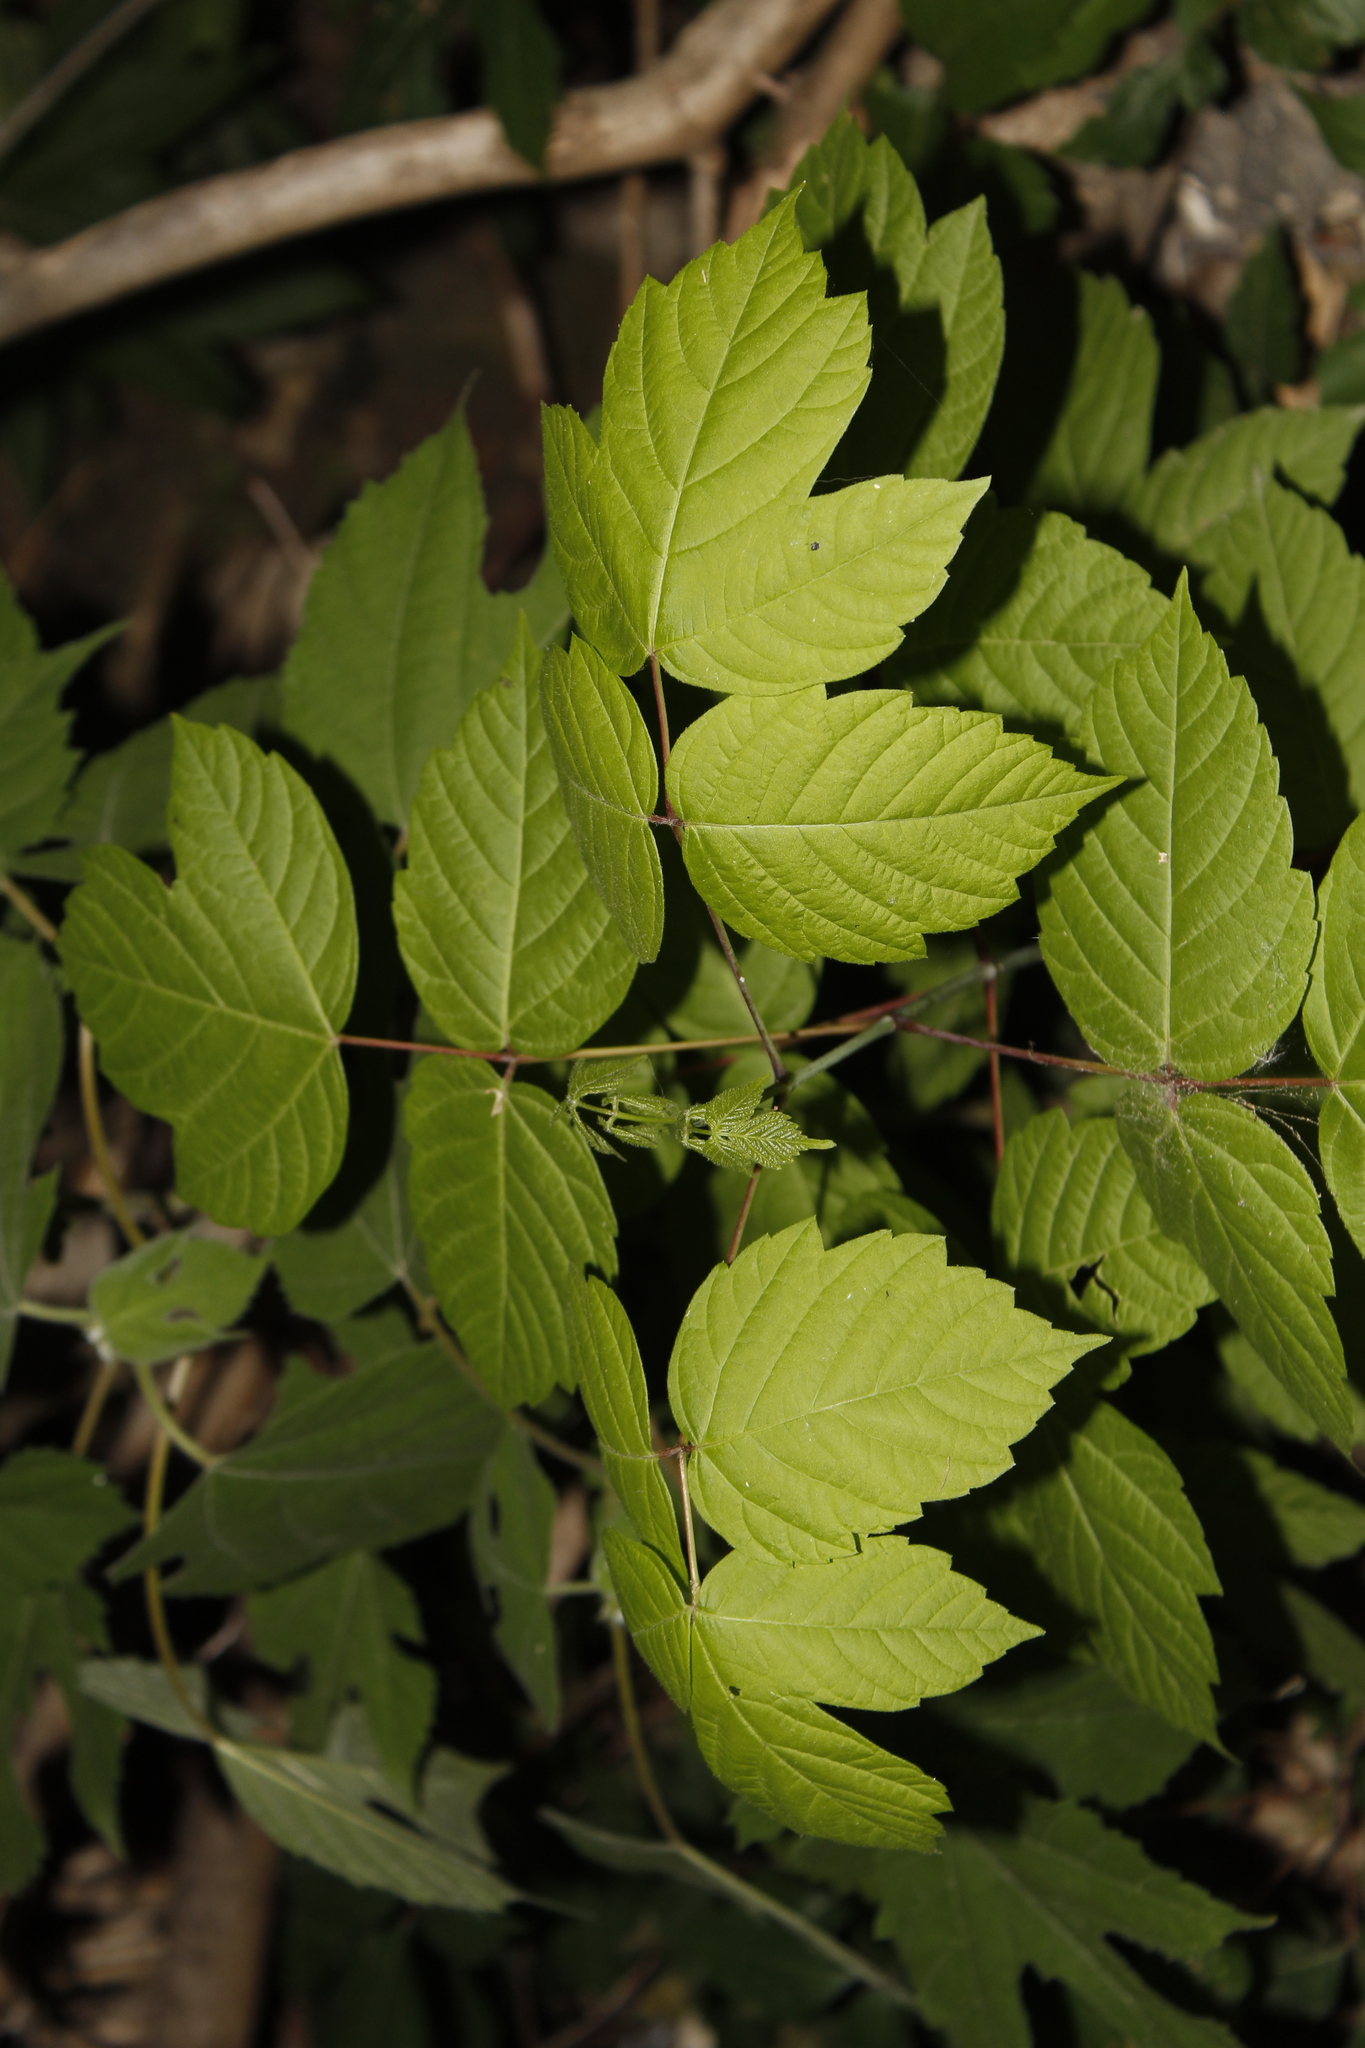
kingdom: Plantae
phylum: Tracheophyta
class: Magnoliopsida
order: Sapindales
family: Sapindaceae
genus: Acer
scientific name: Acer negundo
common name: Ashleaf maple
